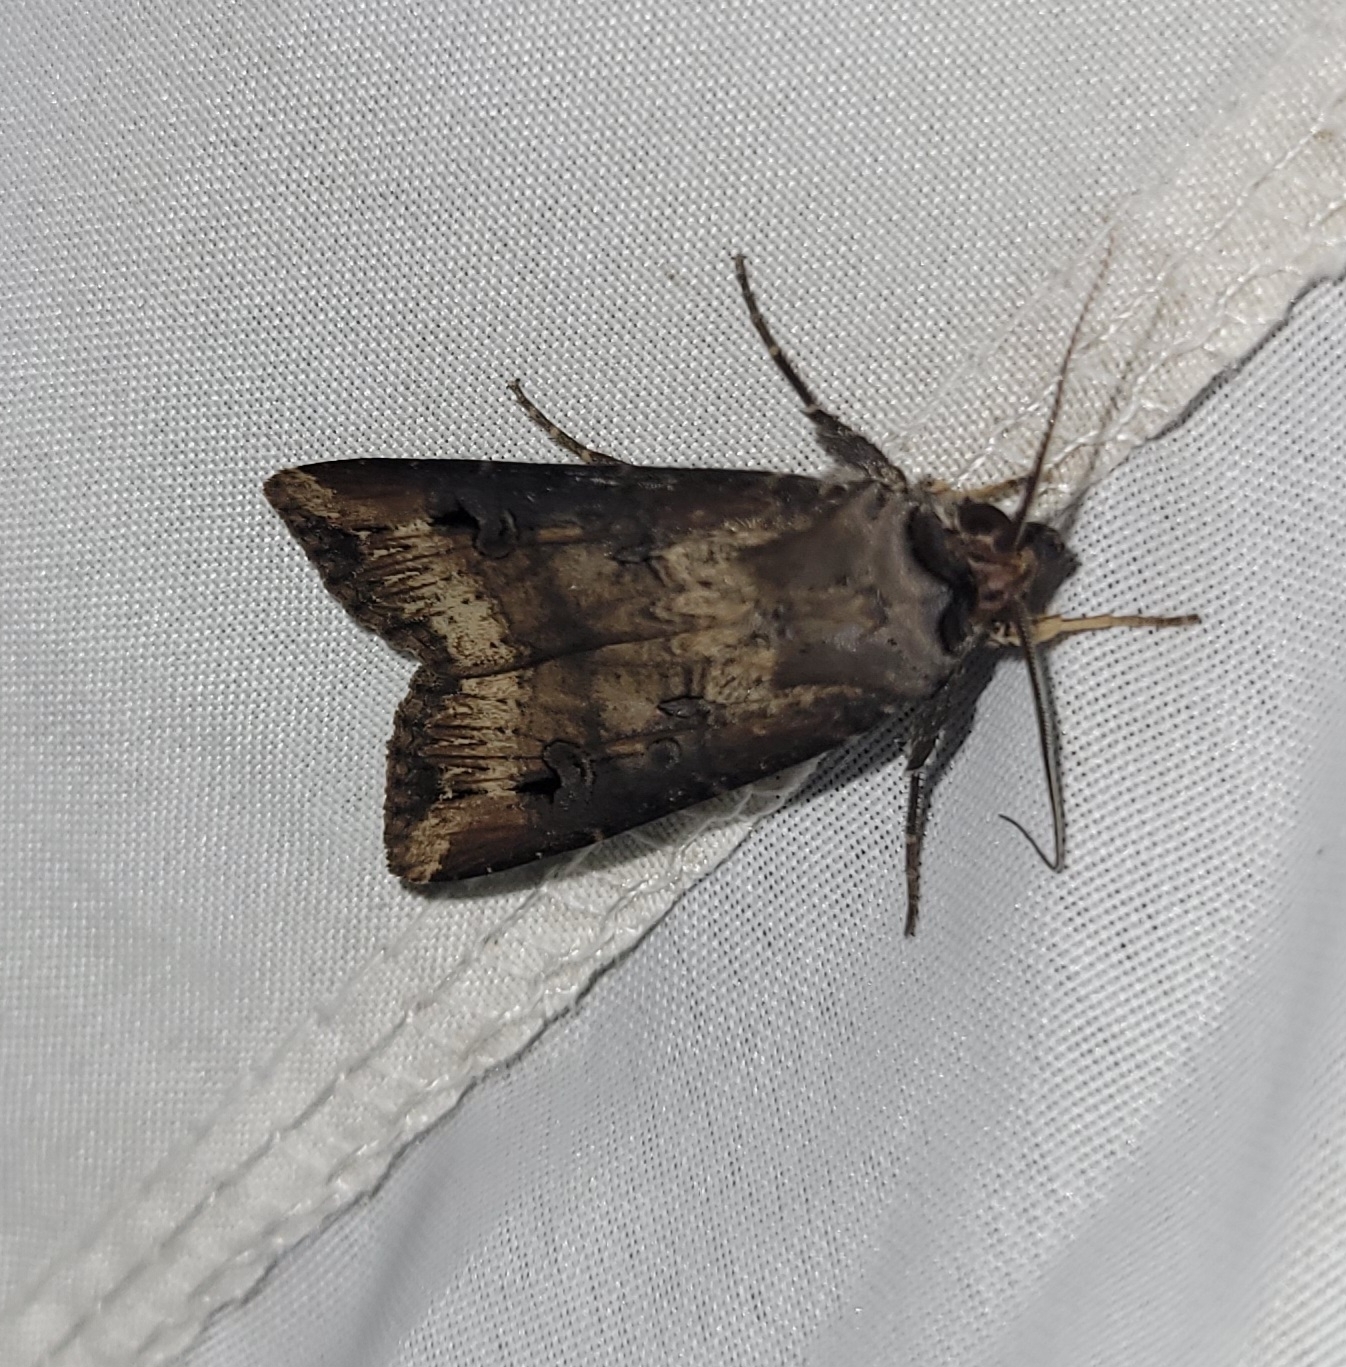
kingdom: Animalia
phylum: Arthropoda
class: Insecta
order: Lepidoptera
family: Noctuidae
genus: Agrotis
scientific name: Agrotis ipsilon
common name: Dark sword-grass
